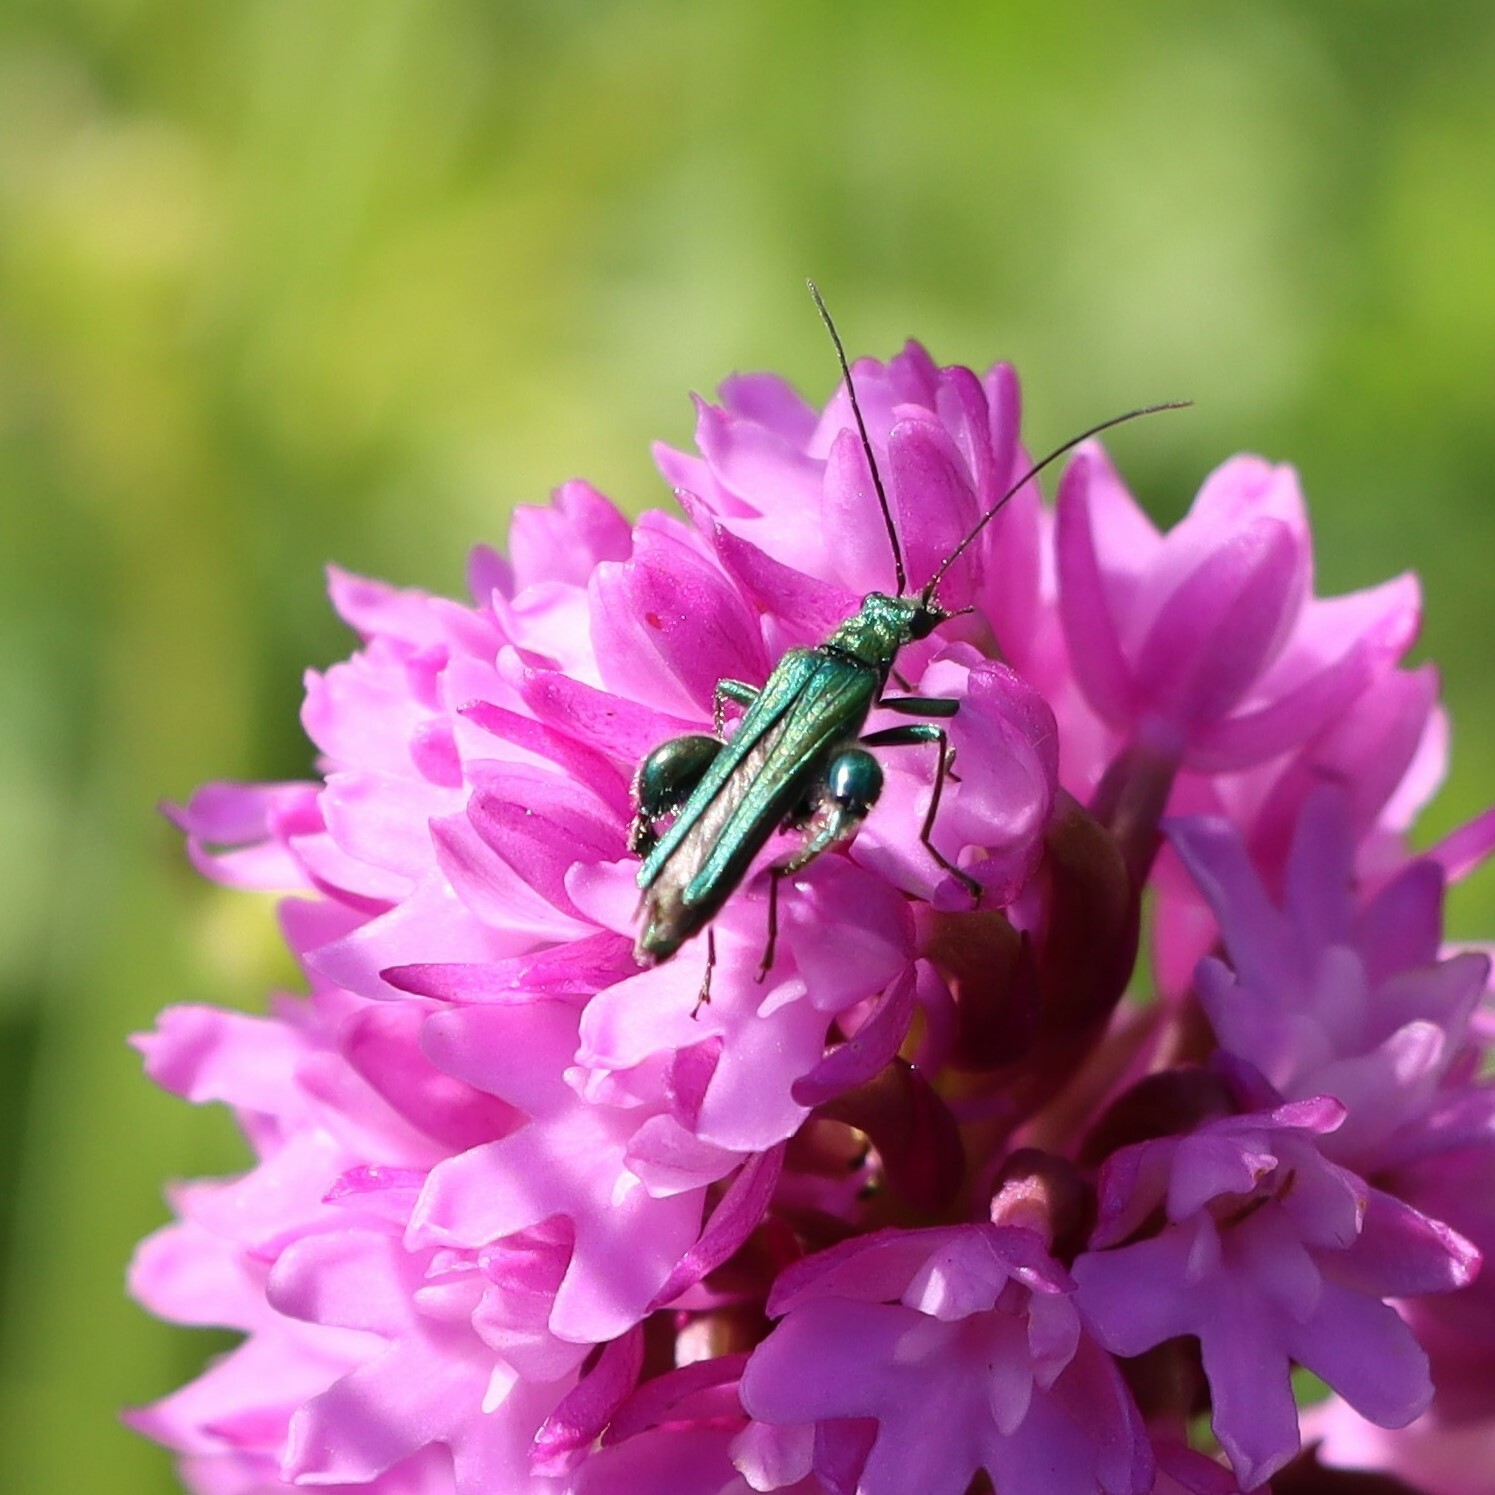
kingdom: Animalia
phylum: Arthropoda
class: Insecta
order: Coleoptera
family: Oedemeridae
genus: Oedemera
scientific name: Oedemera nobilis
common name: Swollen-thighed beetle
